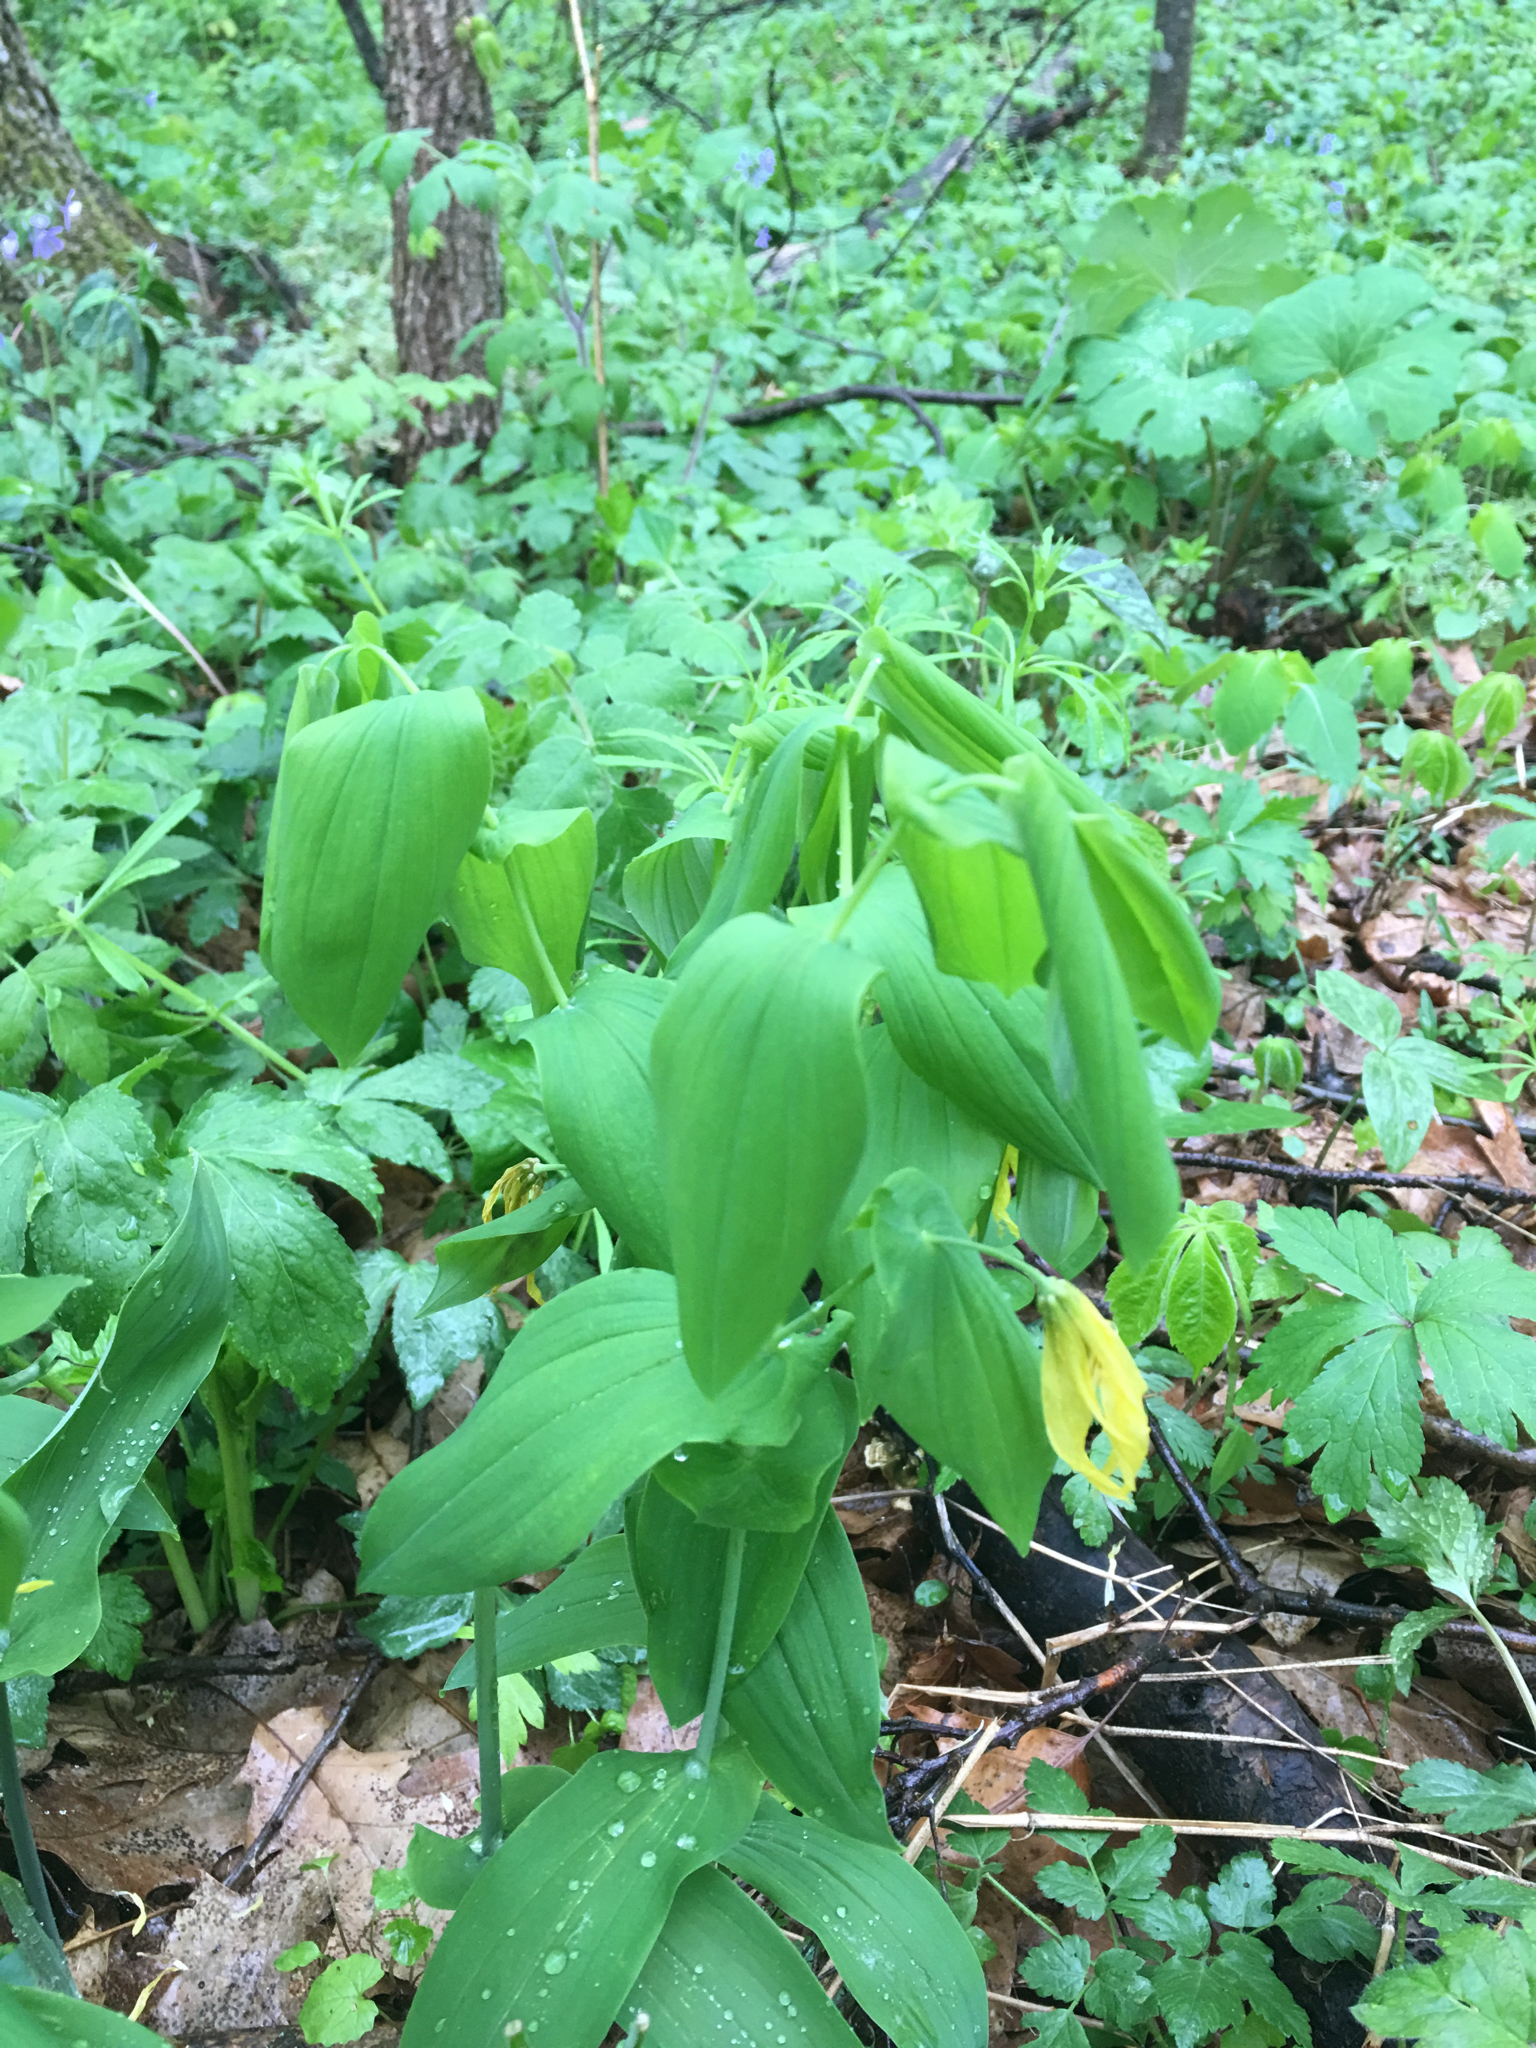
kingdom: Plantae
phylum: Tracheophyta
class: Liliopsida
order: Liliales
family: Colchicaceae
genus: Uvularia
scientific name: Uvularia grandiflora
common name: Bellwort
